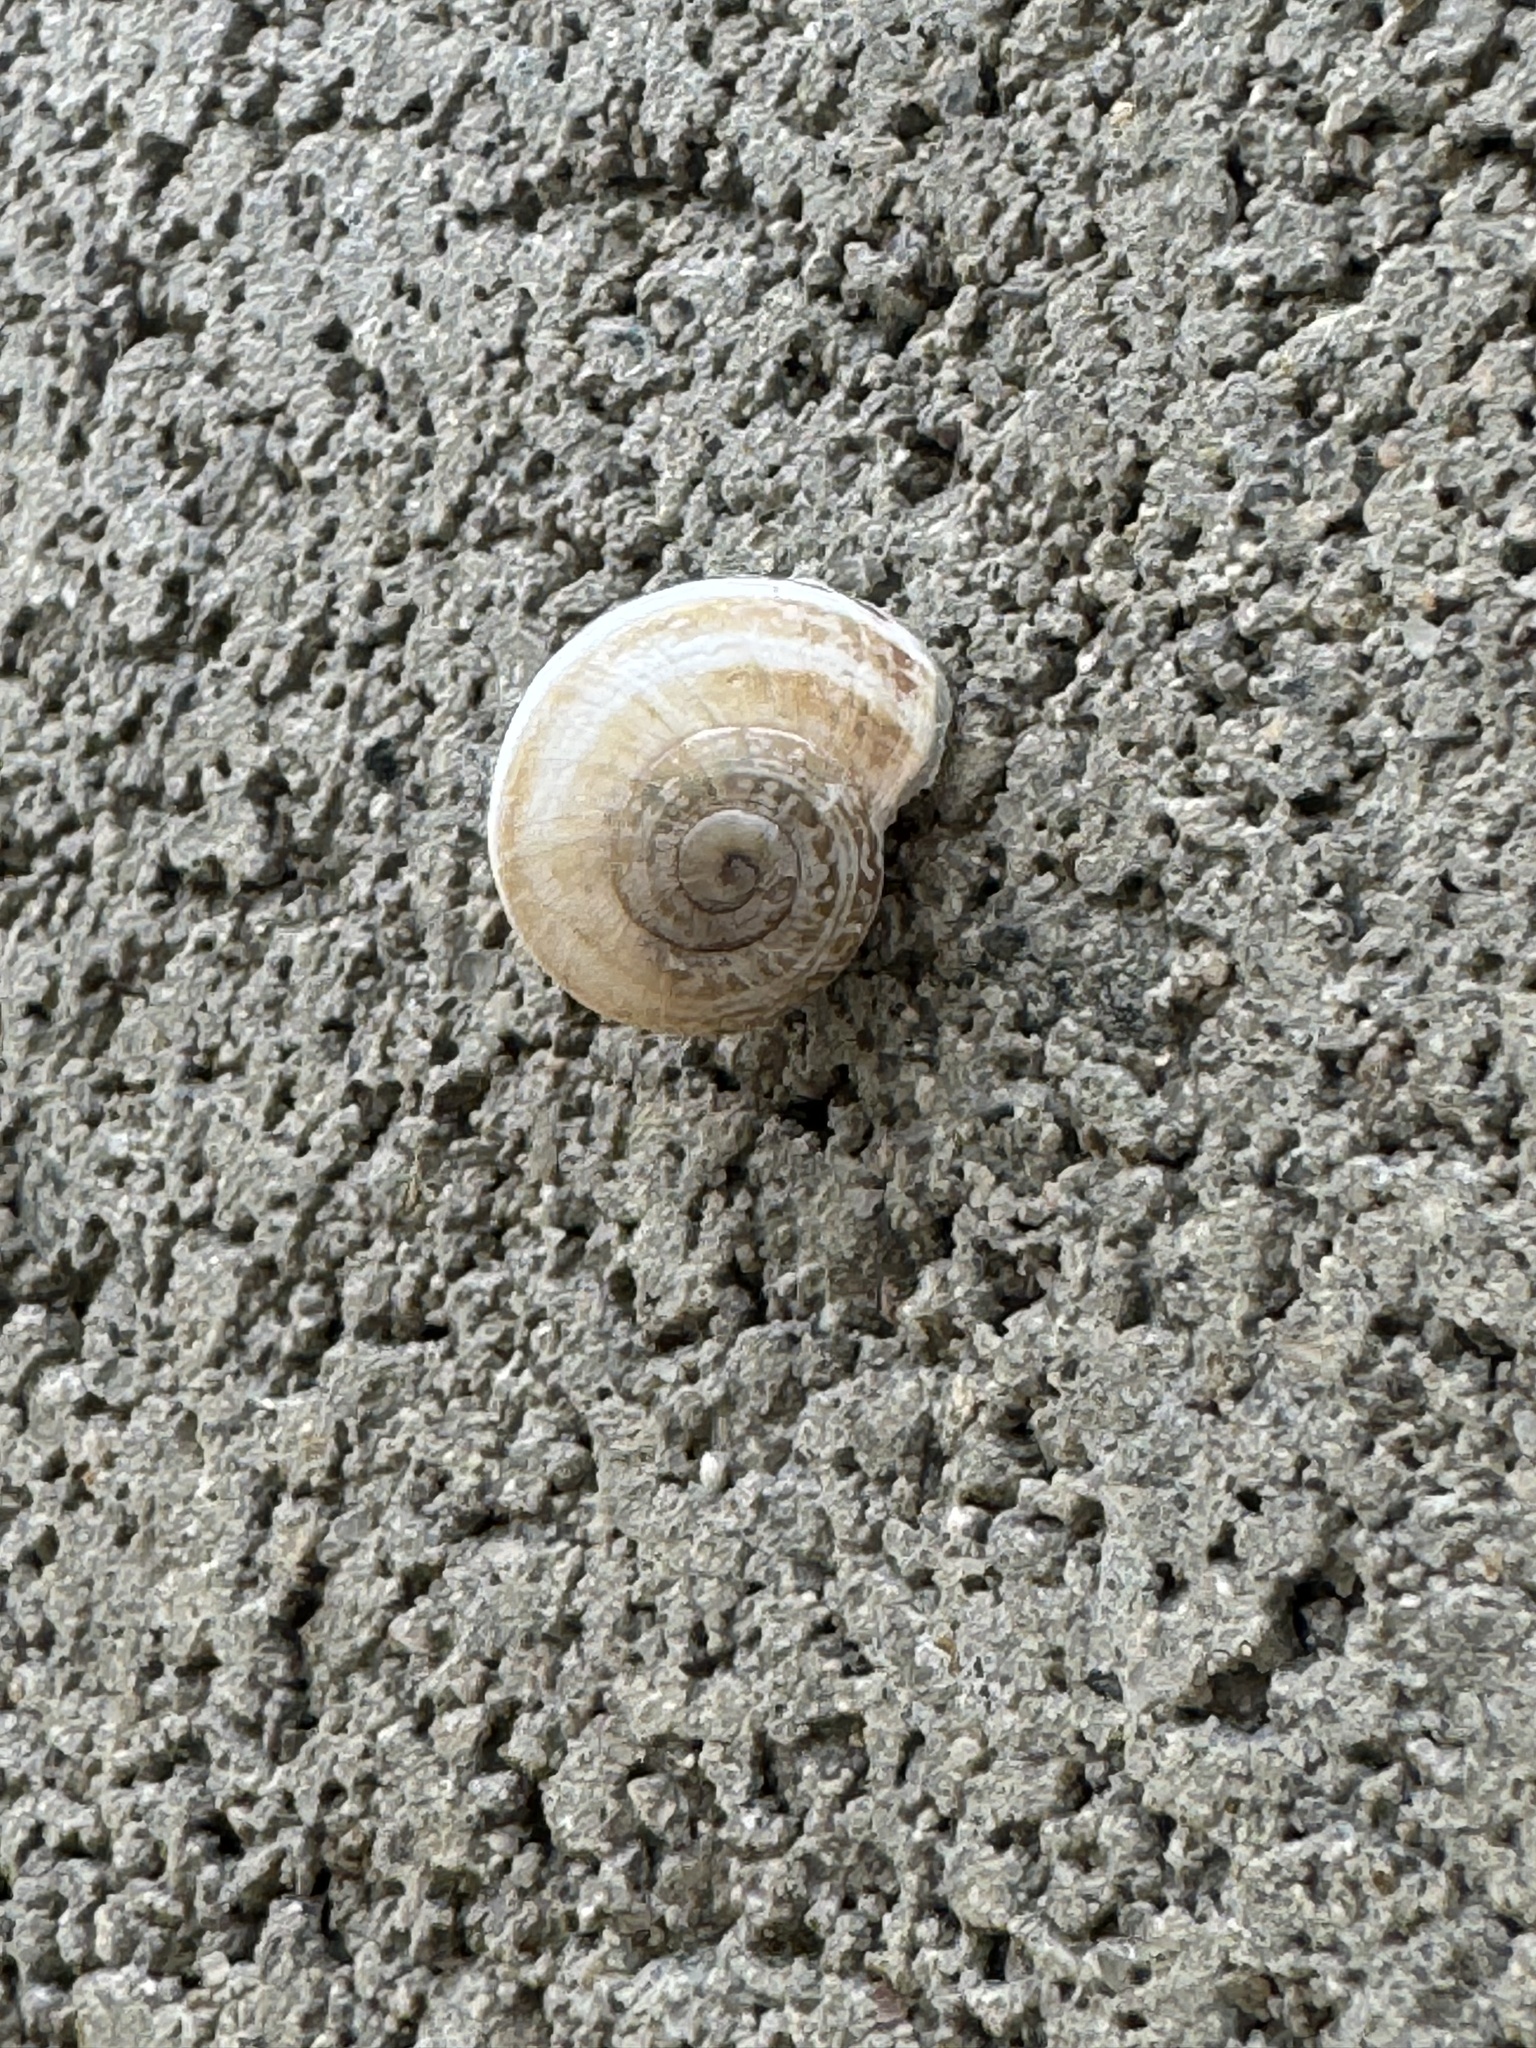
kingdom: Animalia
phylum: Mollusca
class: Gastropoda
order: Stylommatophora
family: Helicidae
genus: Otala
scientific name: Otala lactea
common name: Milk snail
